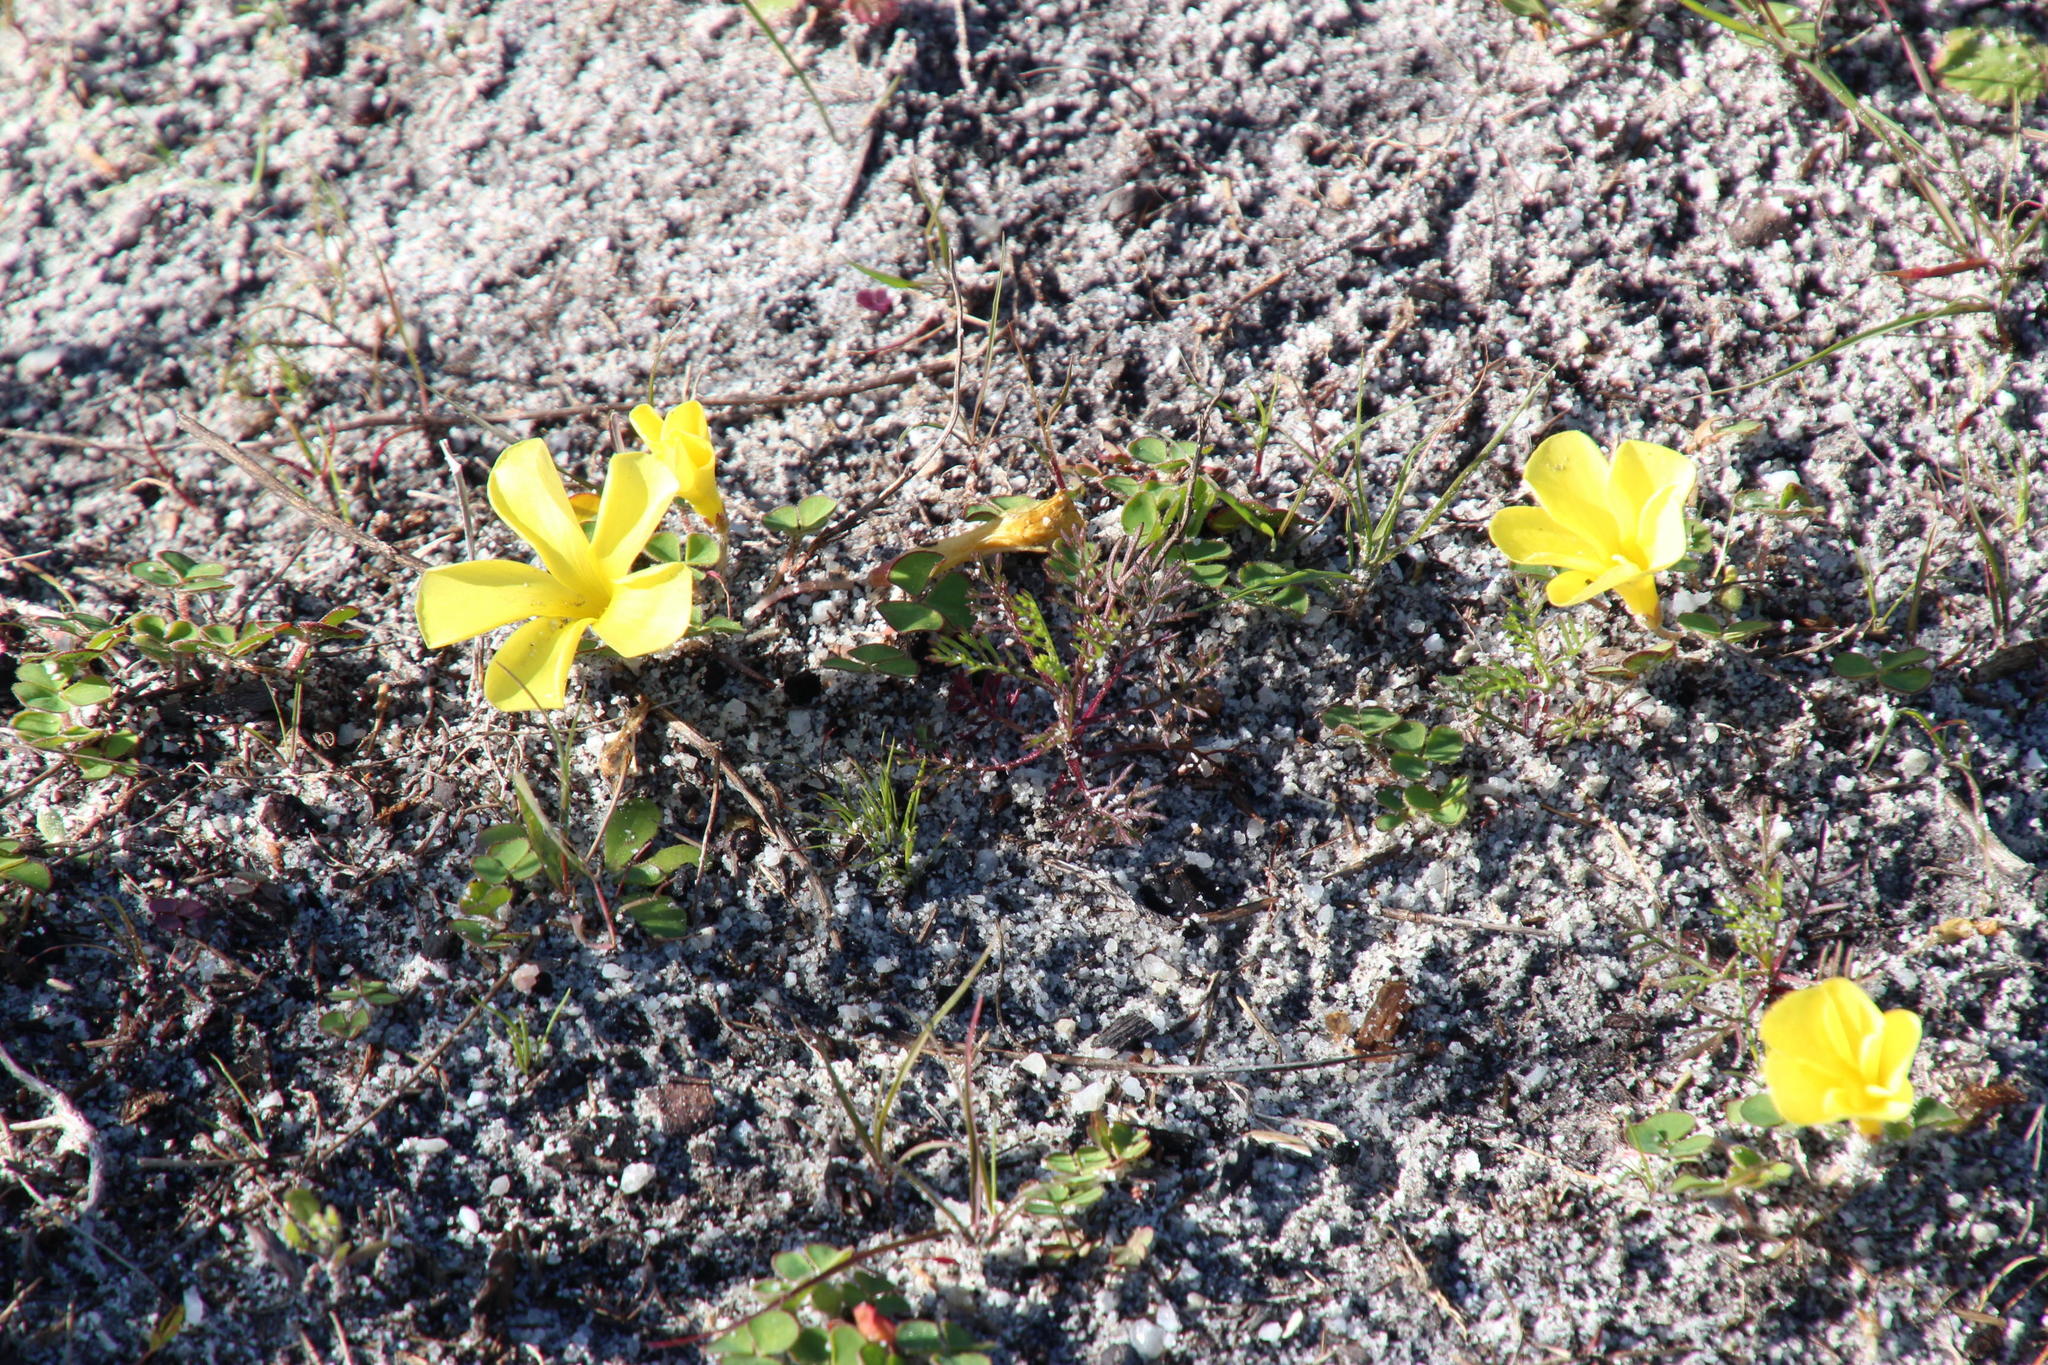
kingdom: Plantae
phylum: Tracheophyta
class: Magnoliopsida
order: Oxalidales
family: Oxalidaceae
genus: Oxalis
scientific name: Oxalis luteola
